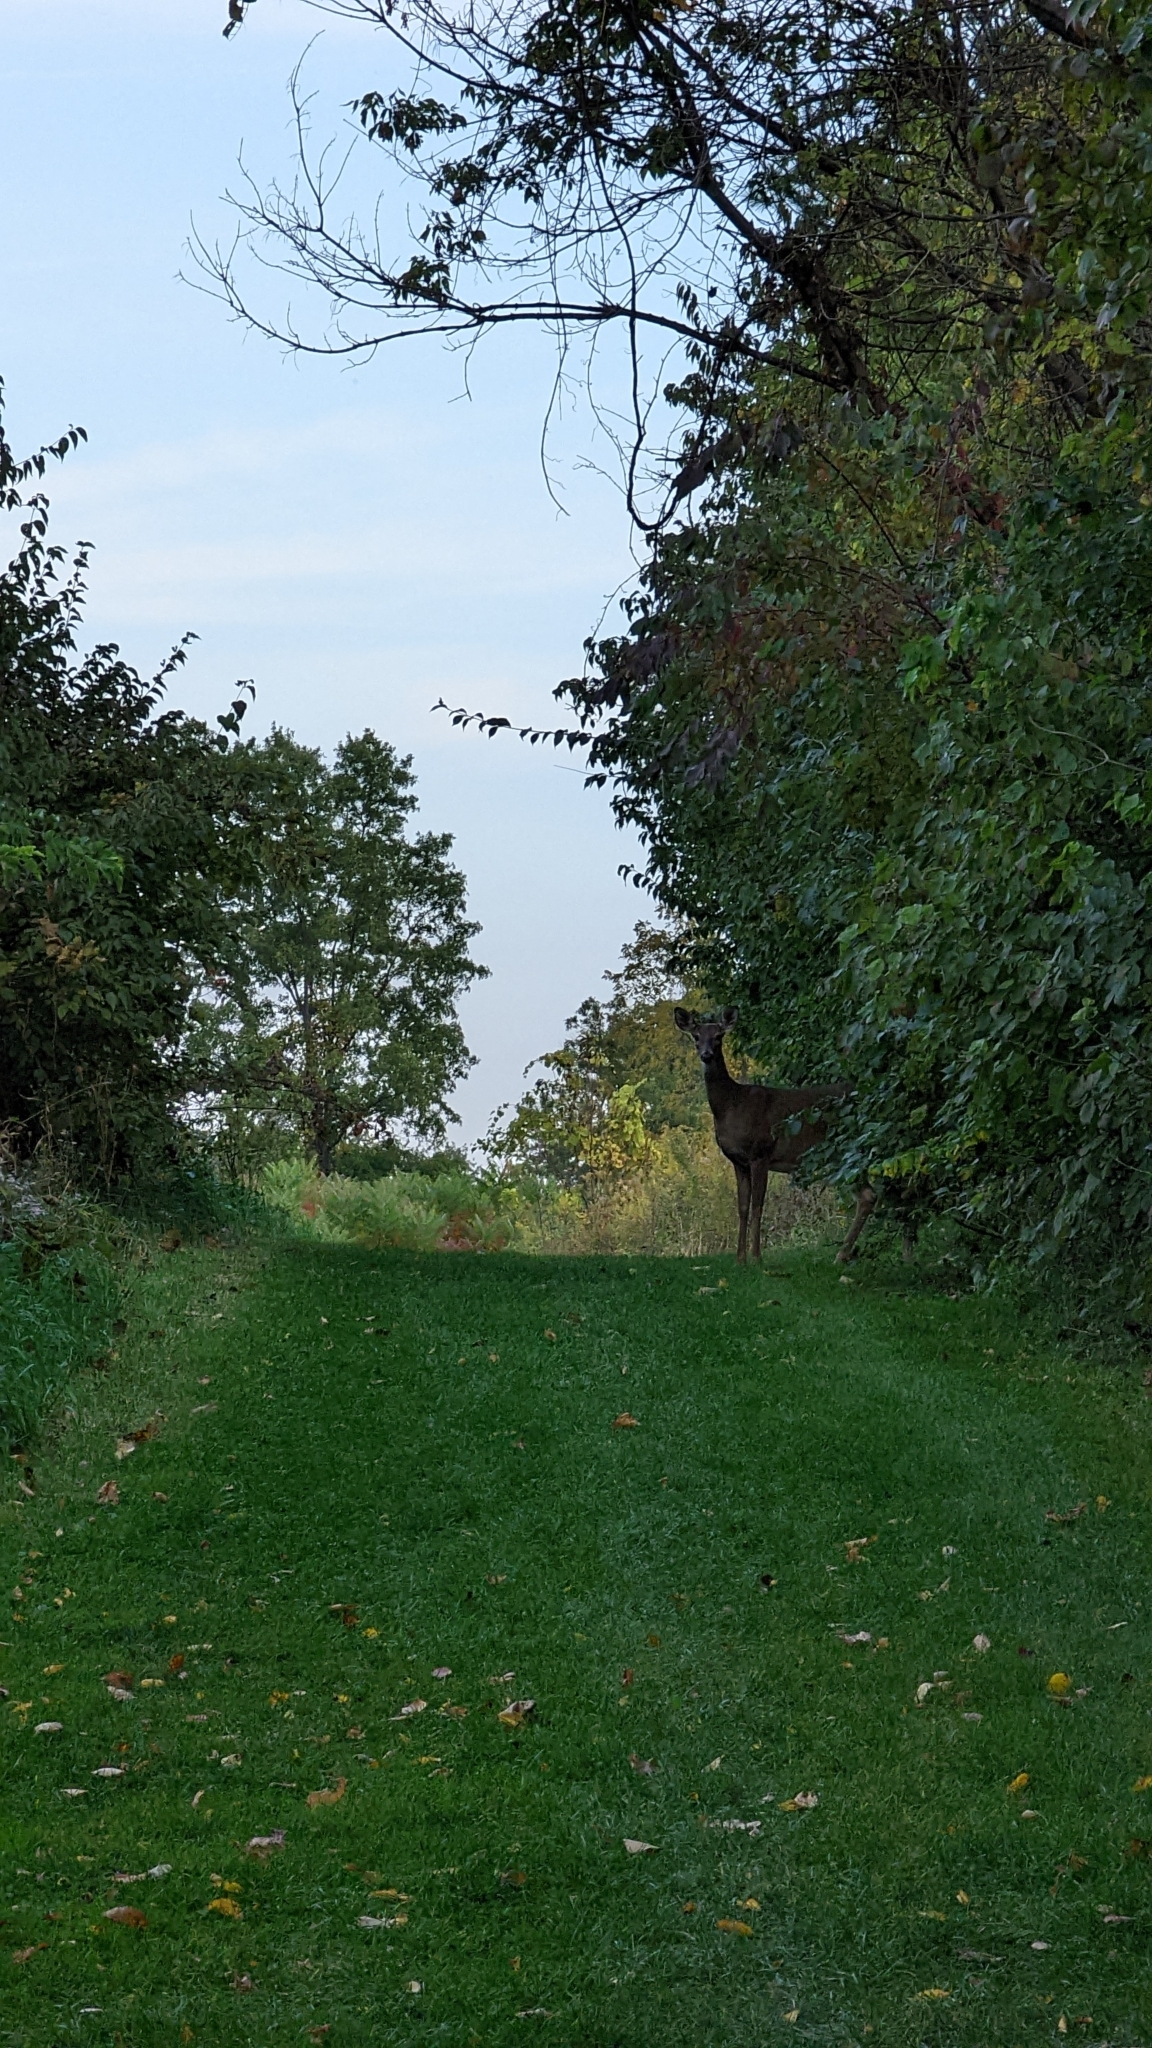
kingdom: Animalia
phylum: Chordata
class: Mammalia
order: Artiodactyla
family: Cervidae
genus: Odocoileus
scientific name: Odocoileus virginianus
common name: White-tailed deer
